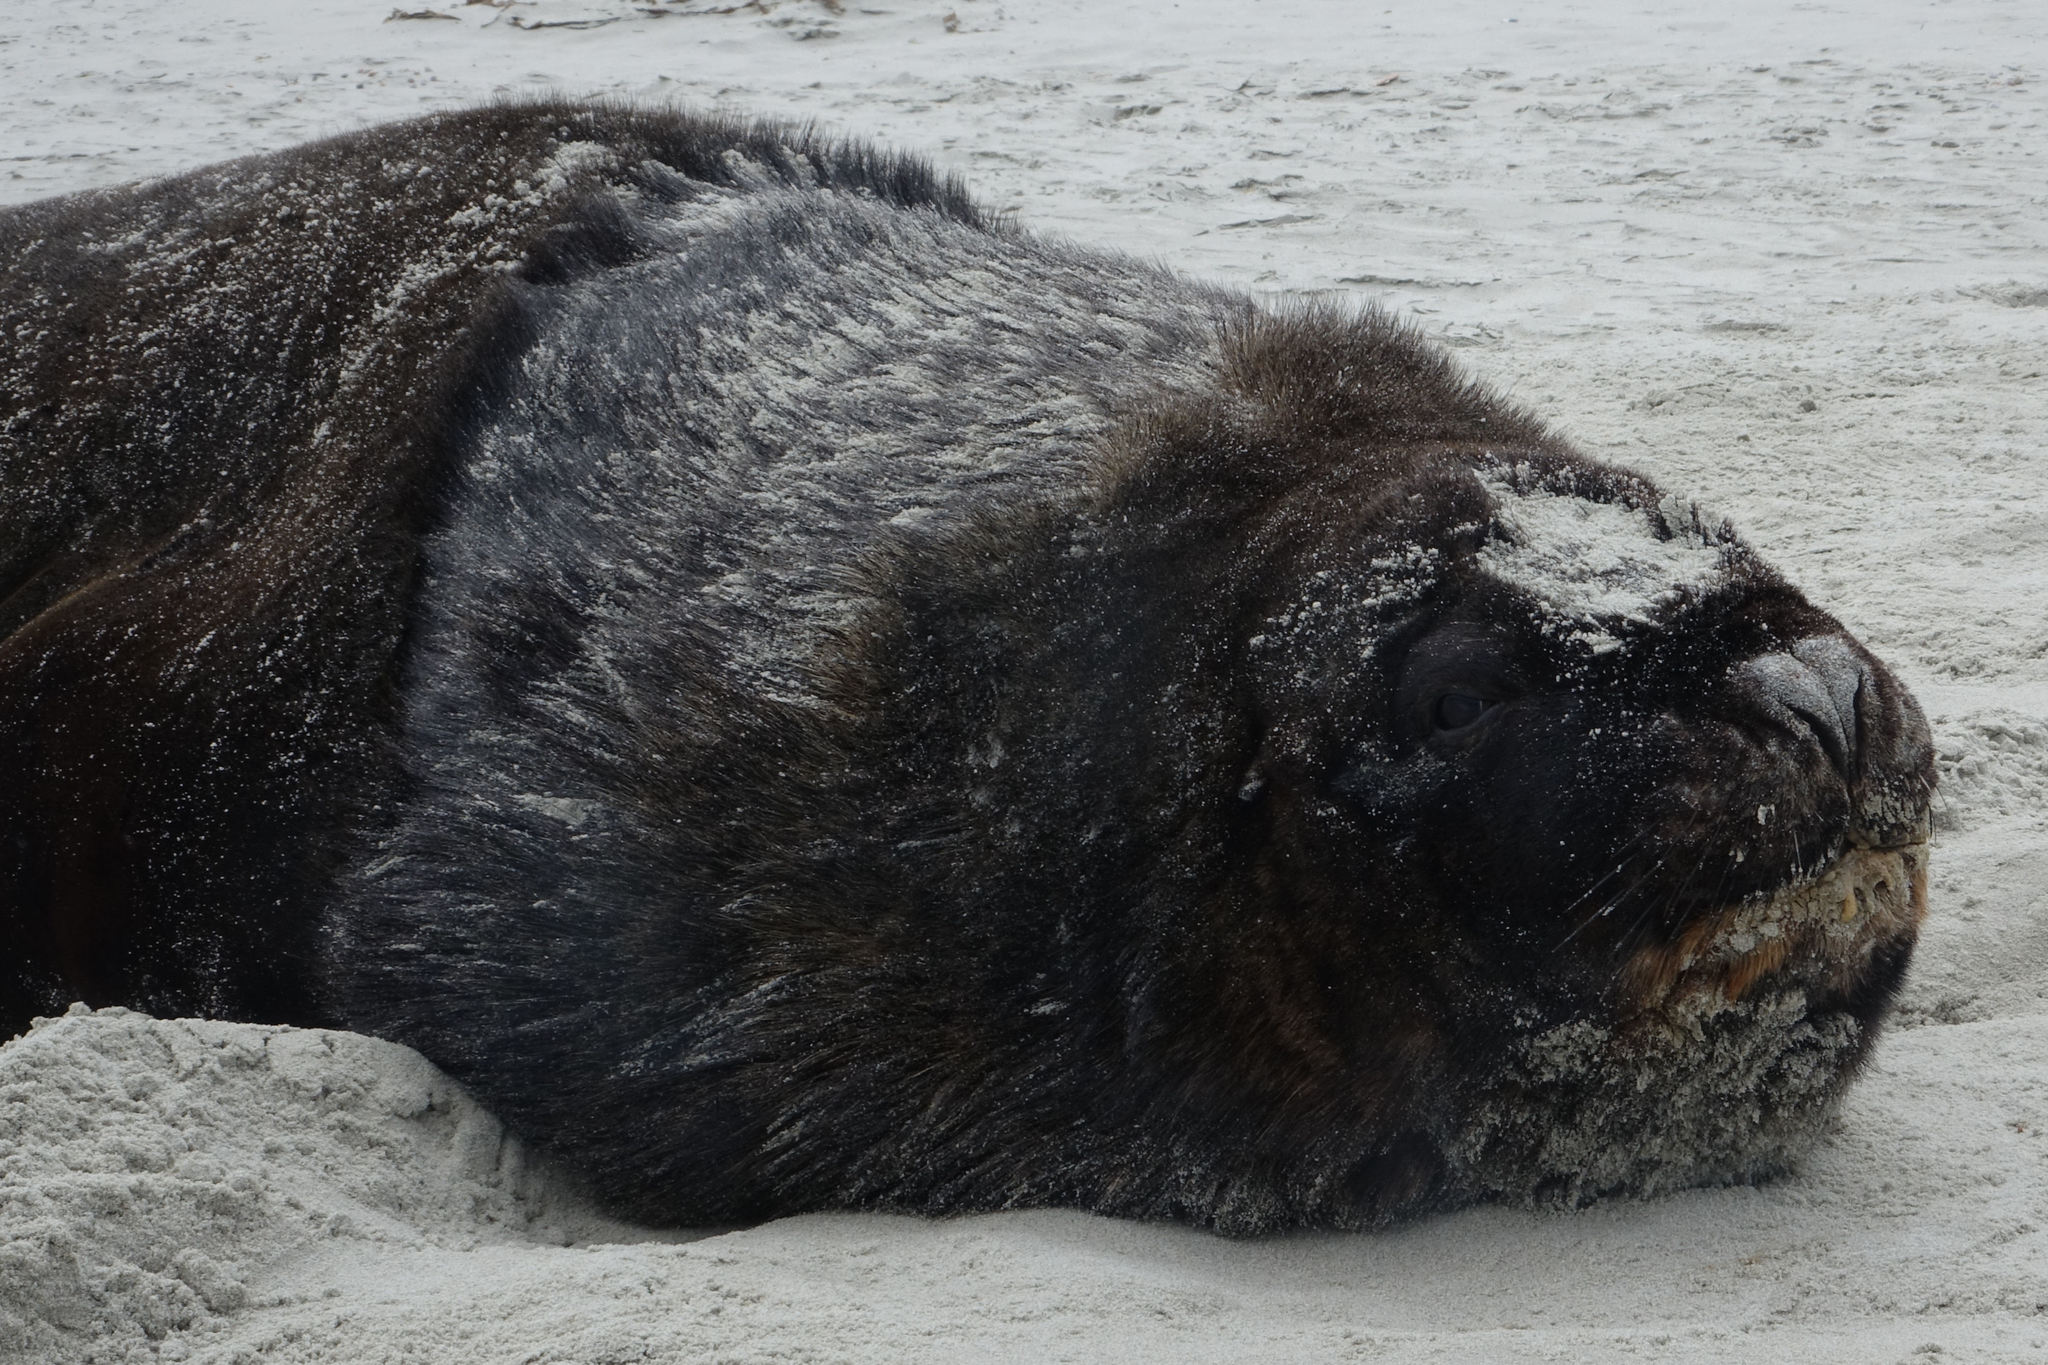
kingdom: Animalia
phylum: Chordata
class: Mammalia
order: Carnivora
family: Otariidae
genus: Phocarctos
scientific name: Phocarctos hookeri
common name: New zealand sea lion
